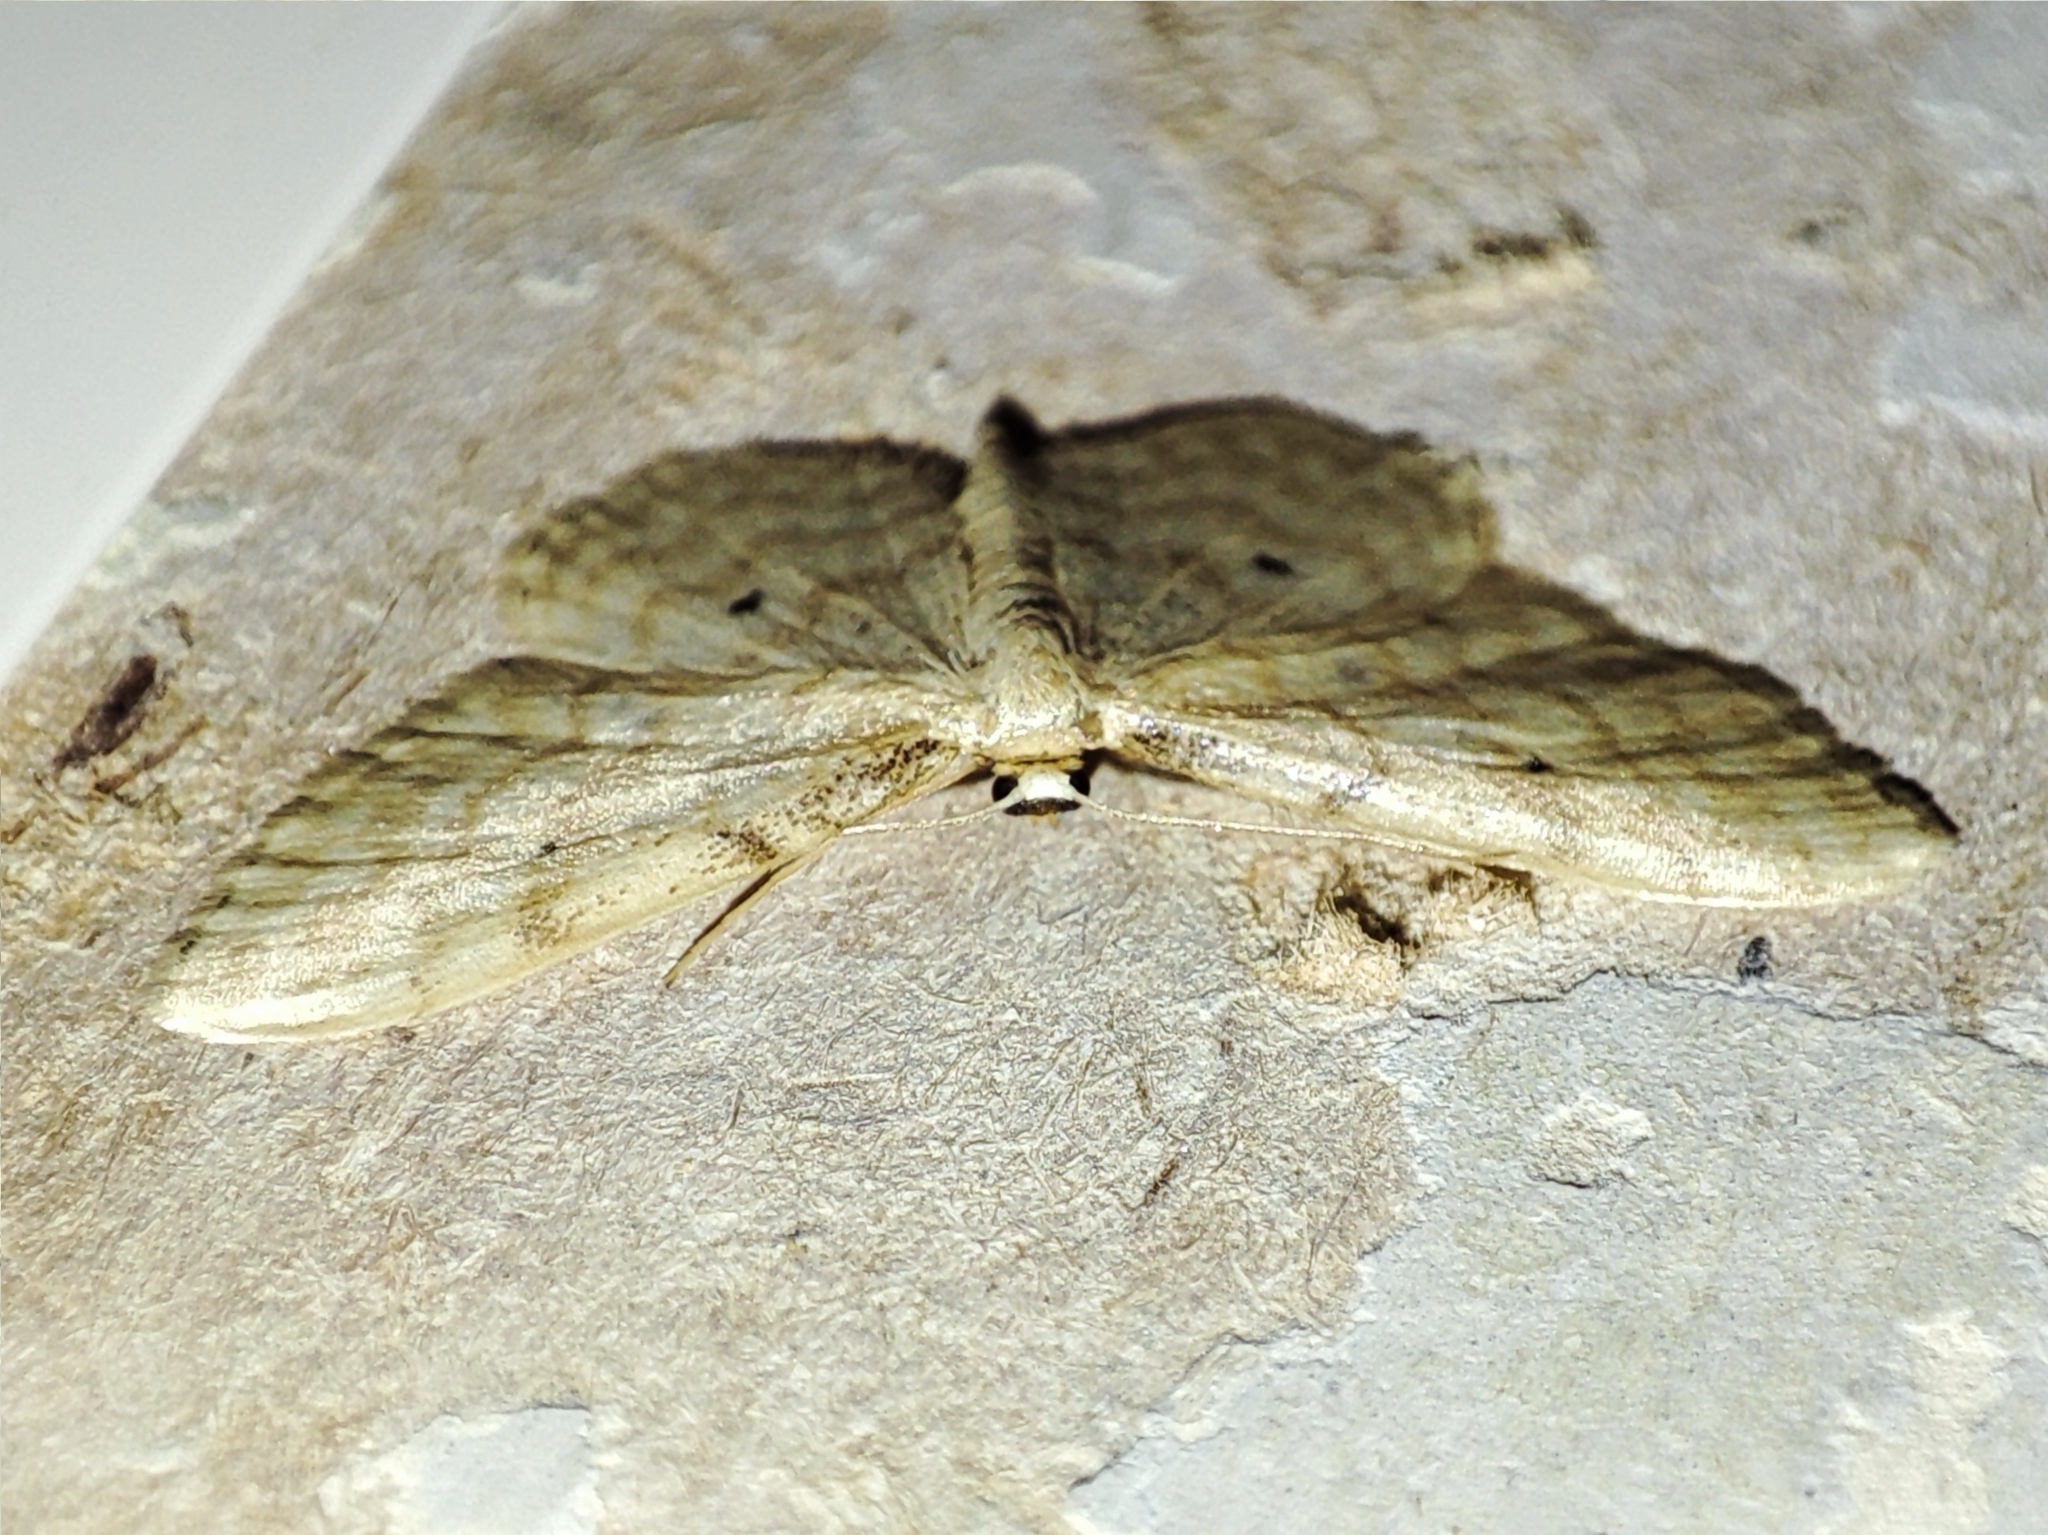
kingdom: Animalia
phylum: Arthropoda
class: Insecta
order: Lepidoptera
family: Geometridae
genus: Idaea
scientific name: Idaea fuscovenosa
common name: Dwarf cream wave
